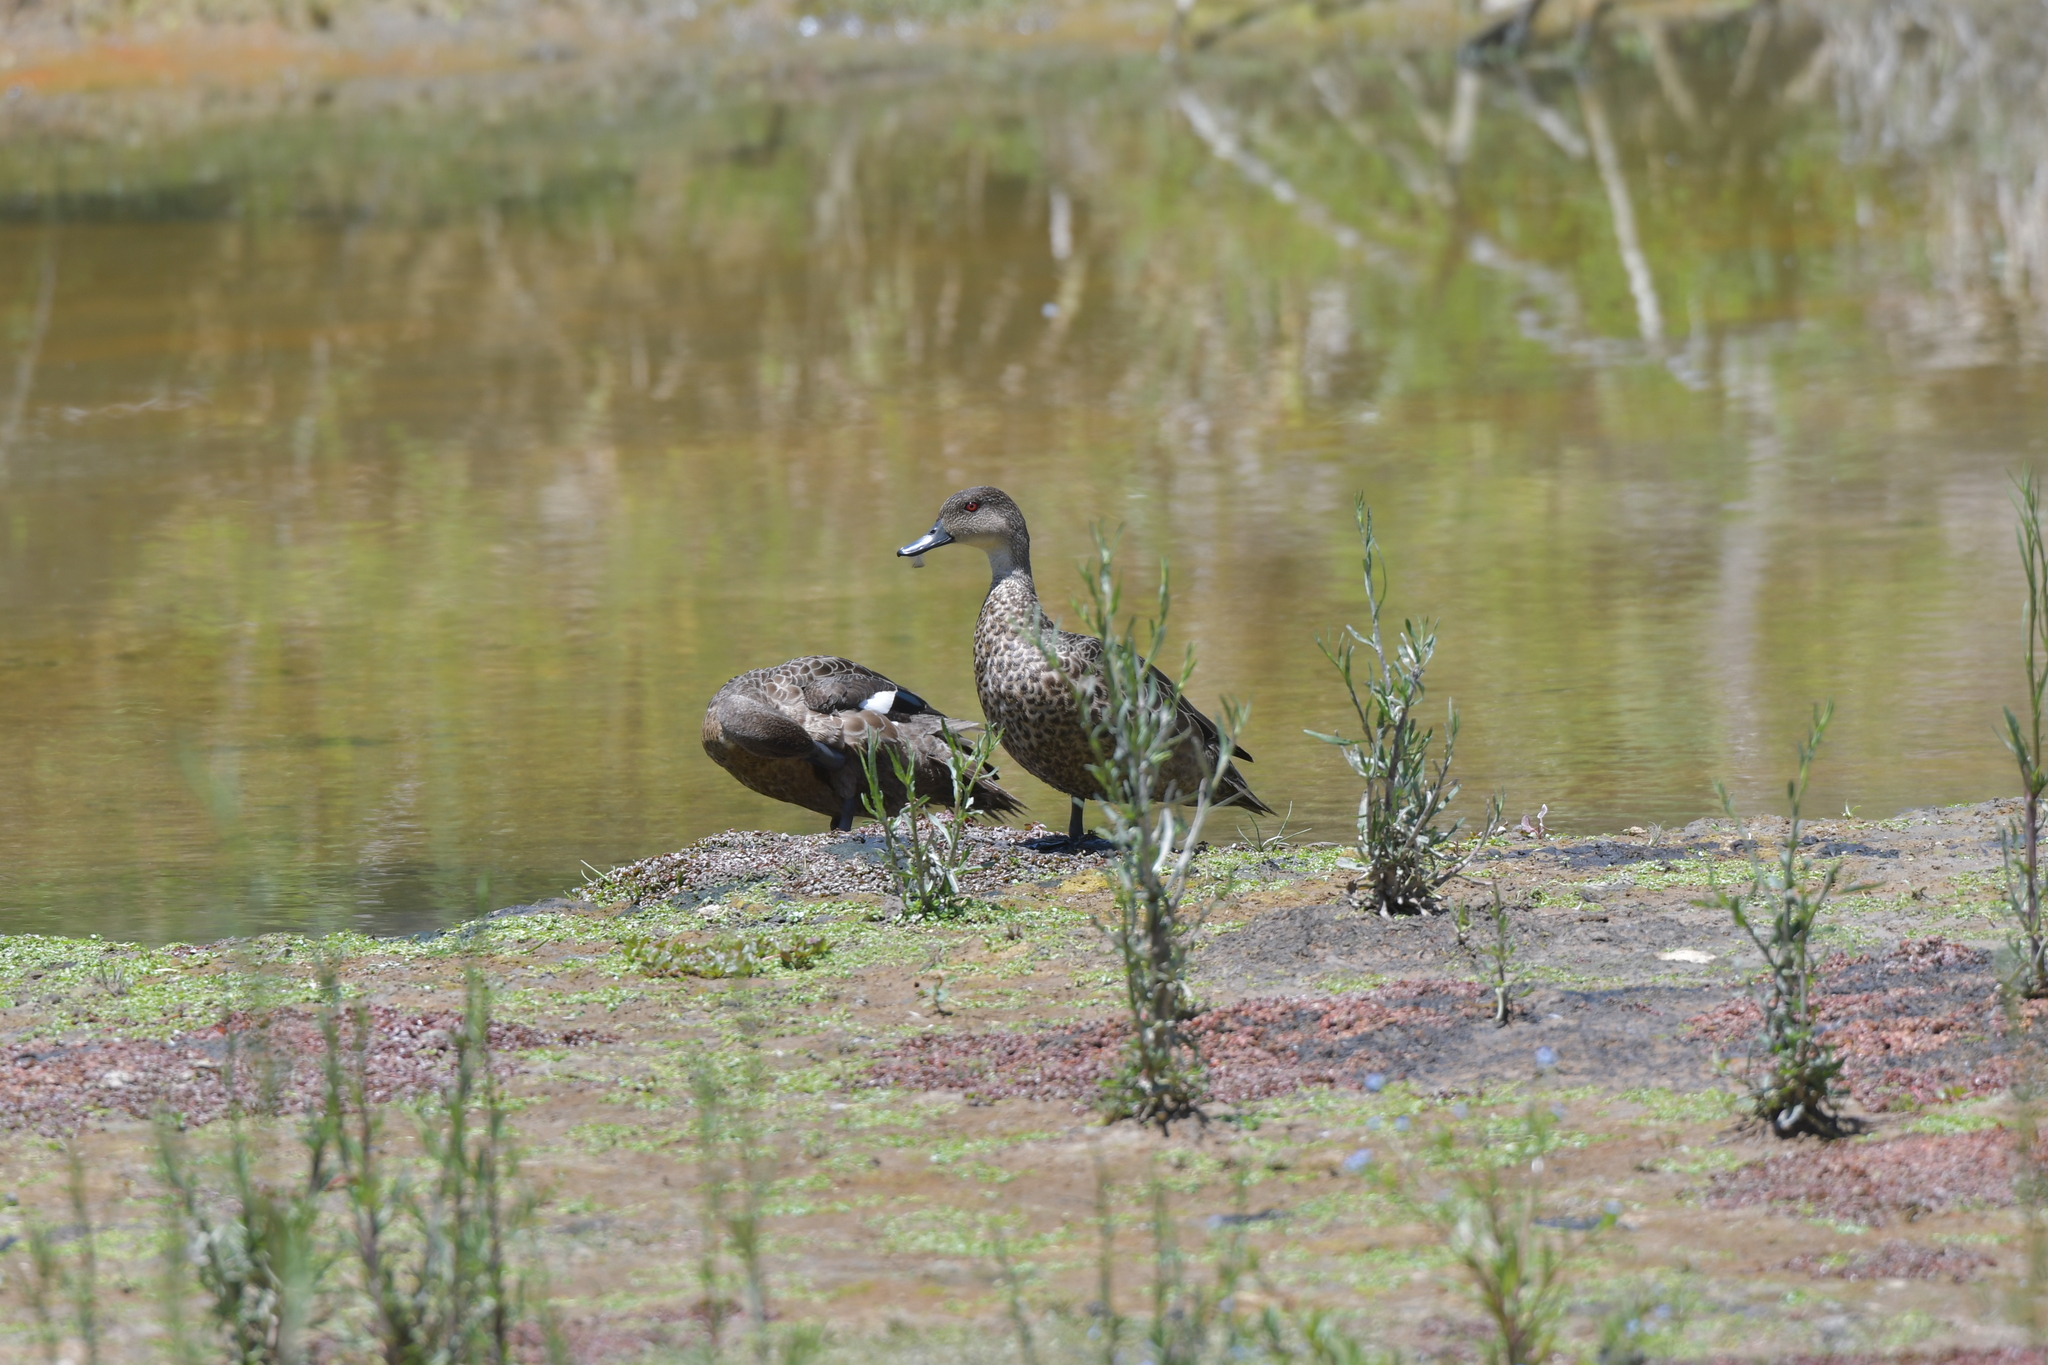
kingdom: Animalia
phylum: Chordata
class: Aves
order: Anseriformes
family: Anatidae
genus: Anas
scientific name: Anas gracilis
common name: Grey teal
